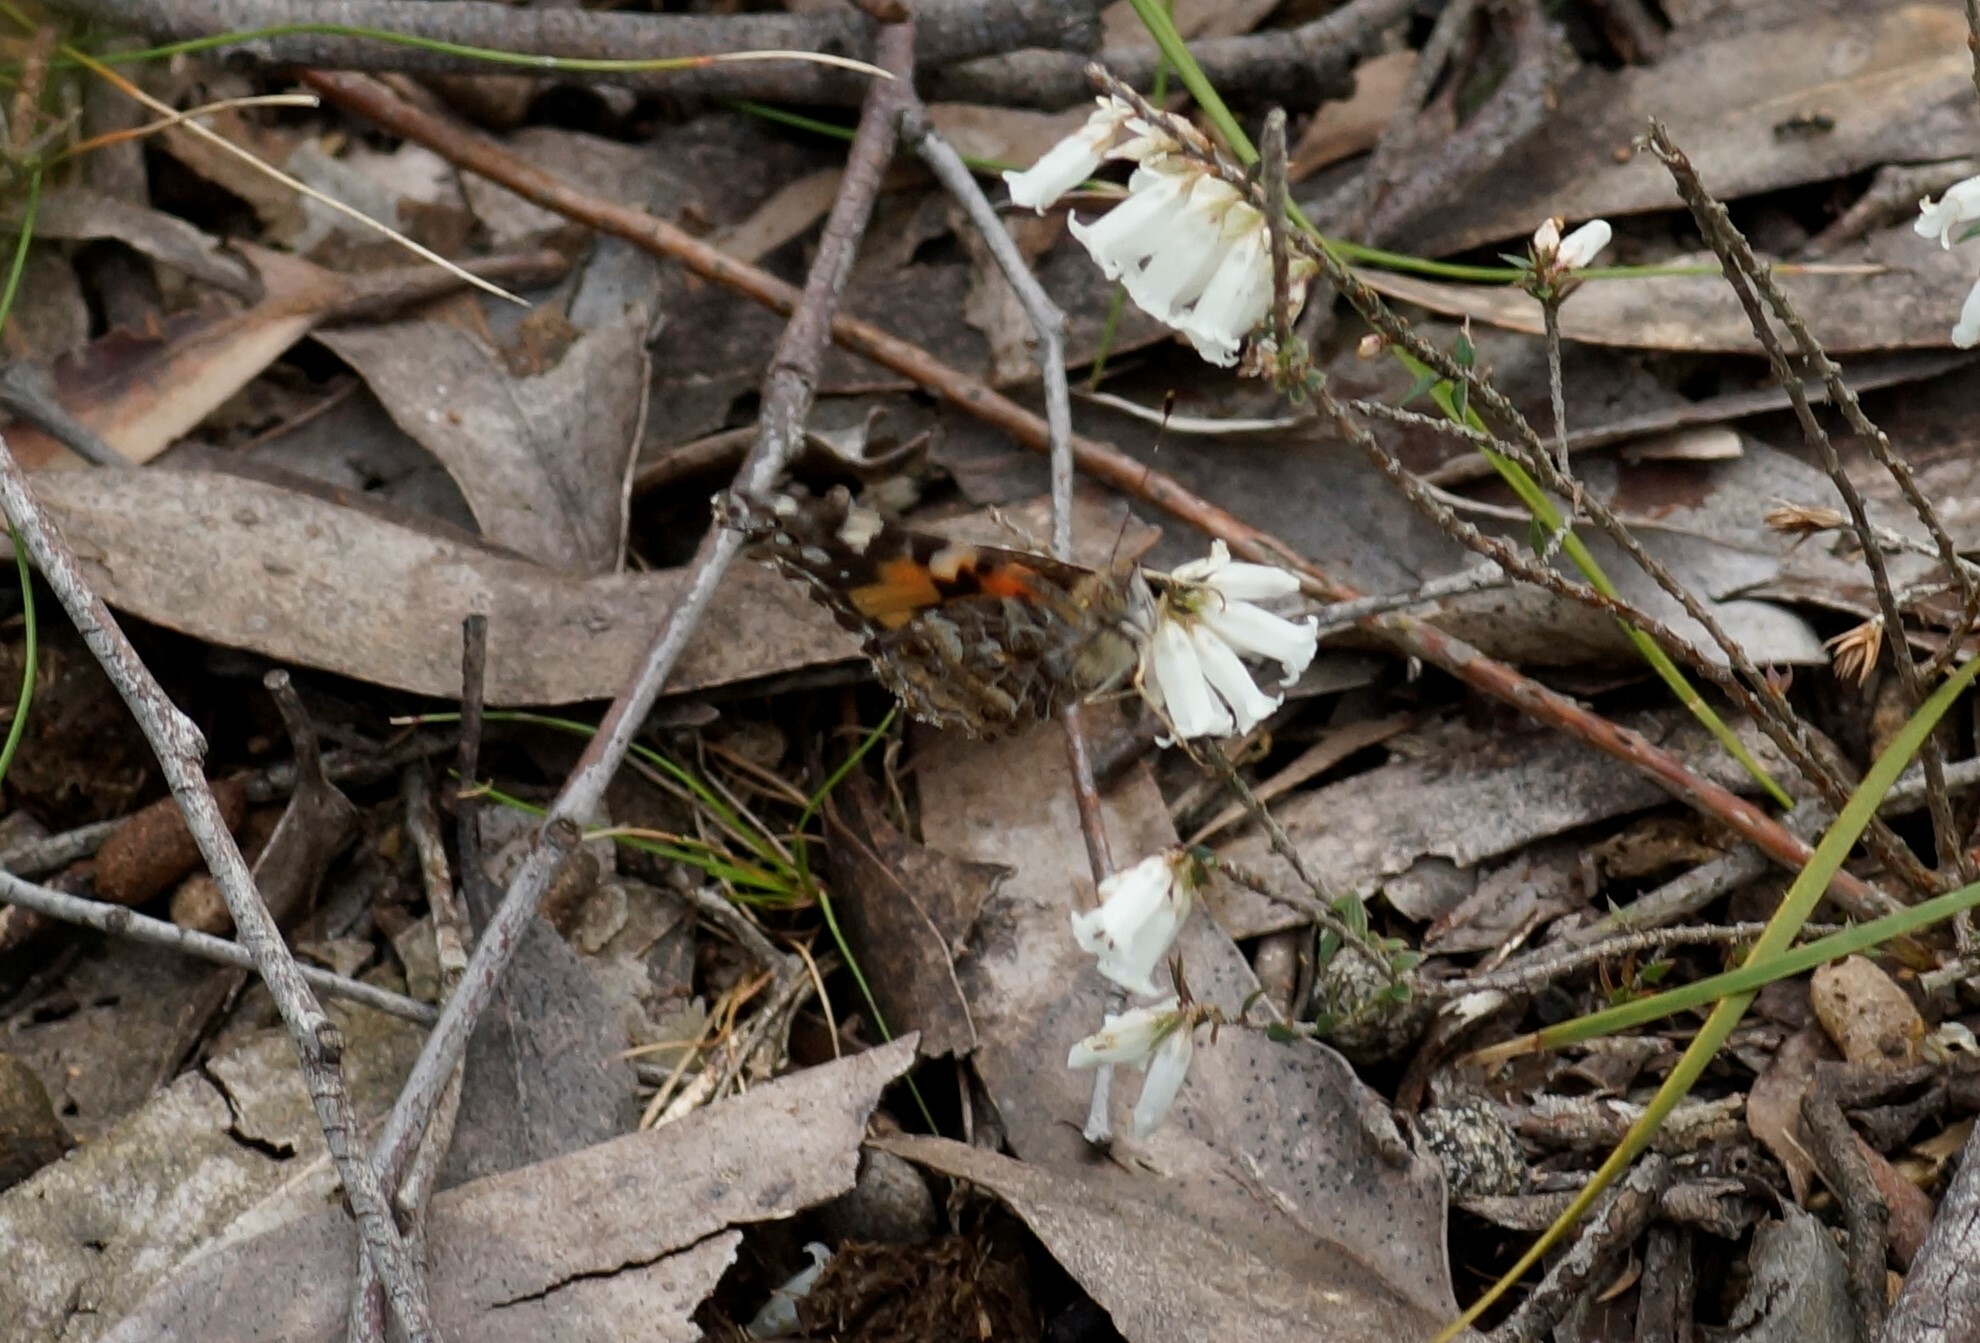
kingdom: Animalia
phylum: Arthropoda
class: Insecta
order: Lepidoptera
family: Nymphalidae
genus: Vanessa
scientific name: Vanessa kershawi
